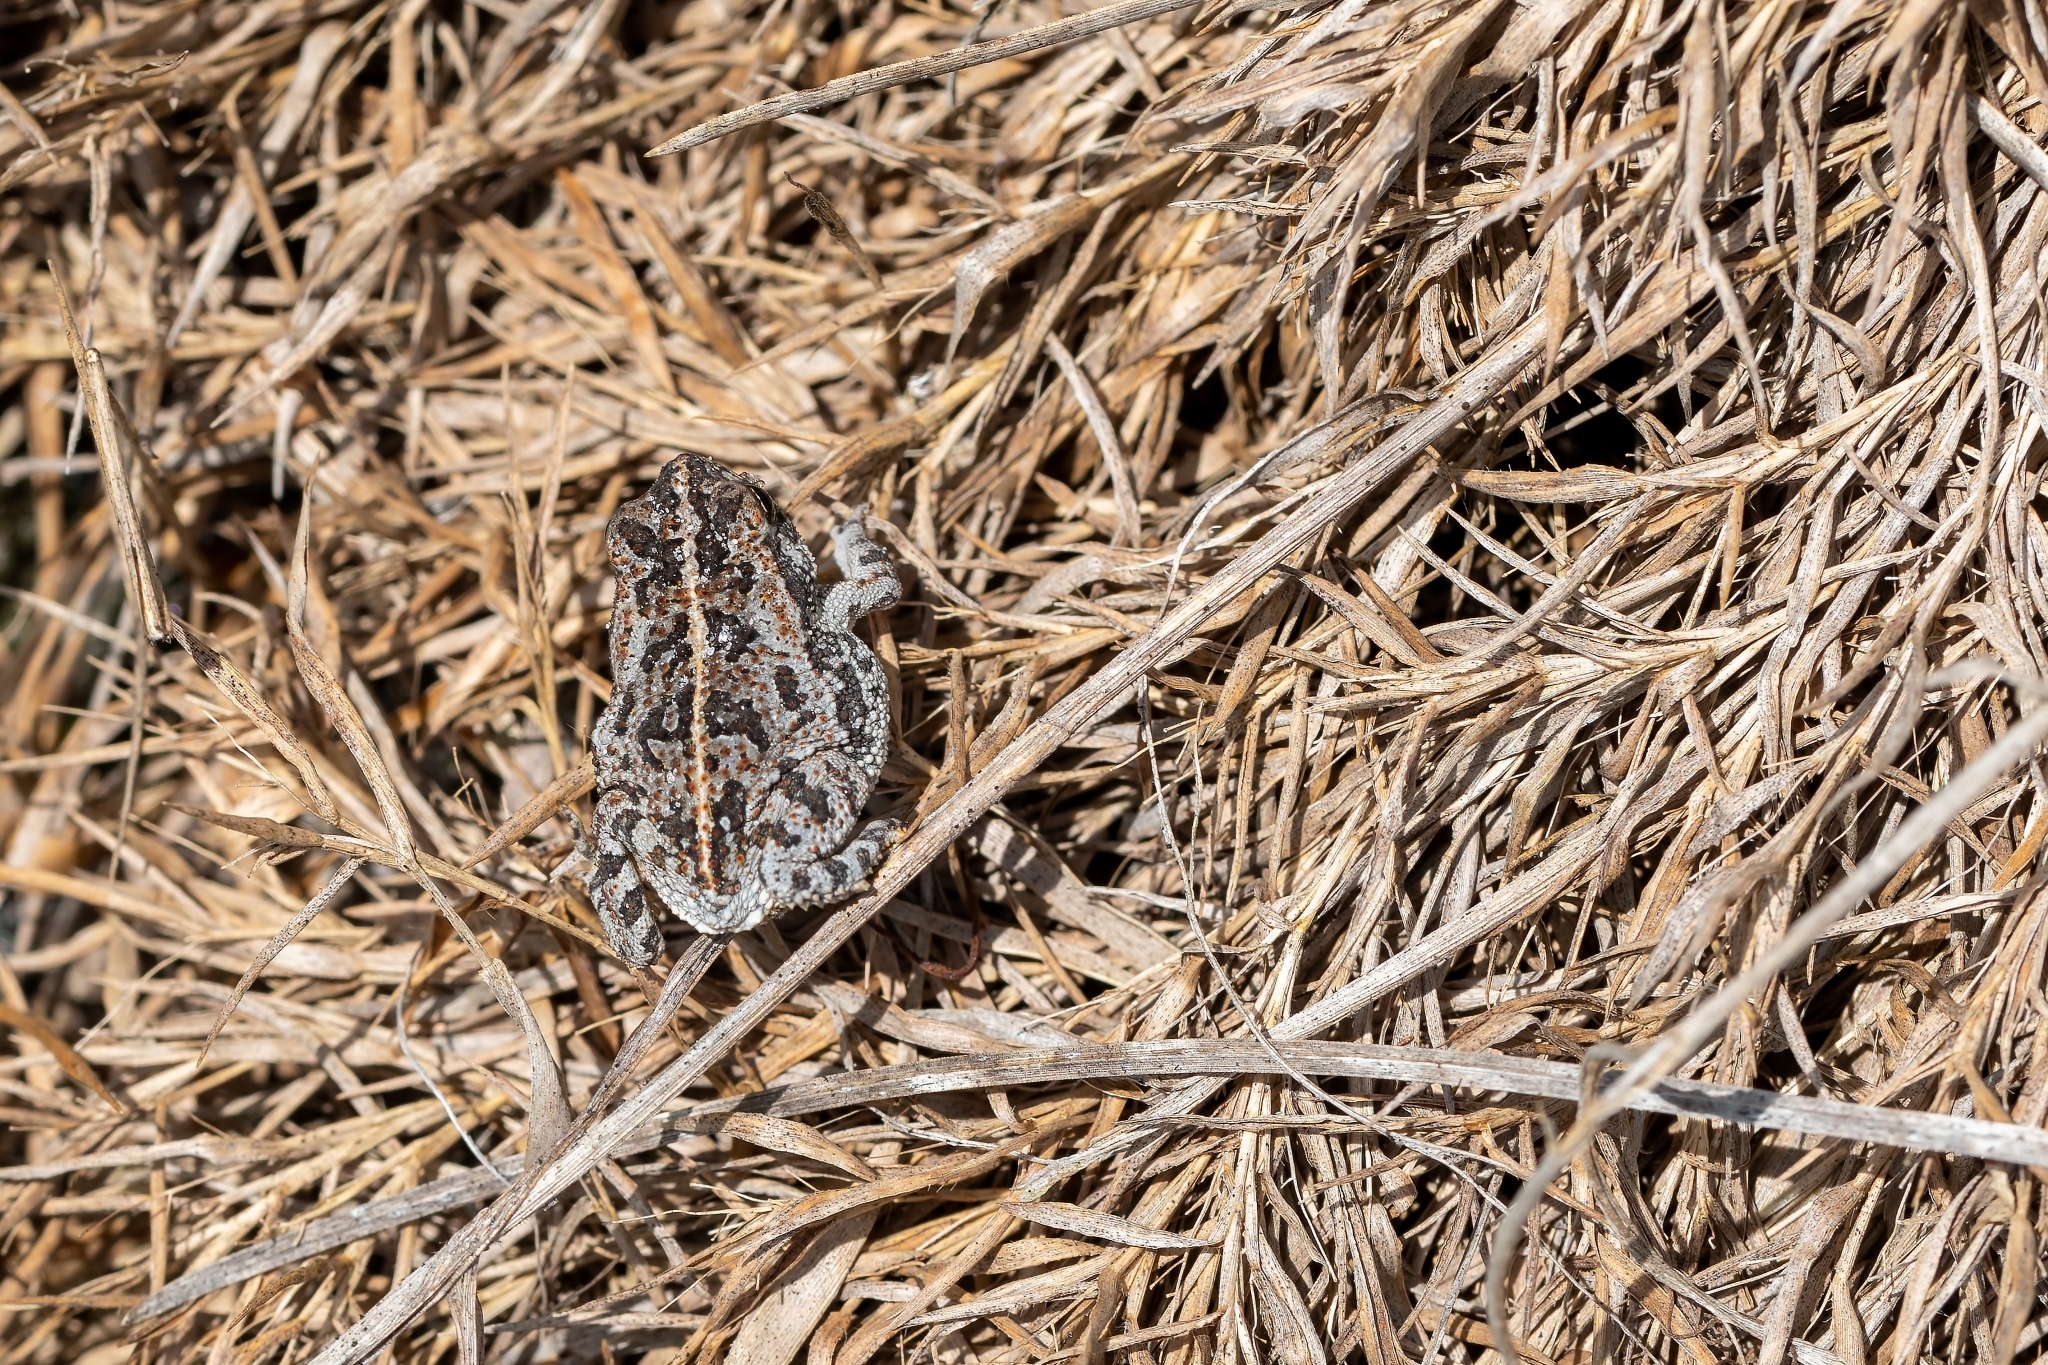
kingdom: Animalia
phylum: Chordata
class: Amphibia
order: Anura
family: Bufonidae
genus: Anaxyrus
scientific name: Anaxyrus quercicus
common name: Oak toad
